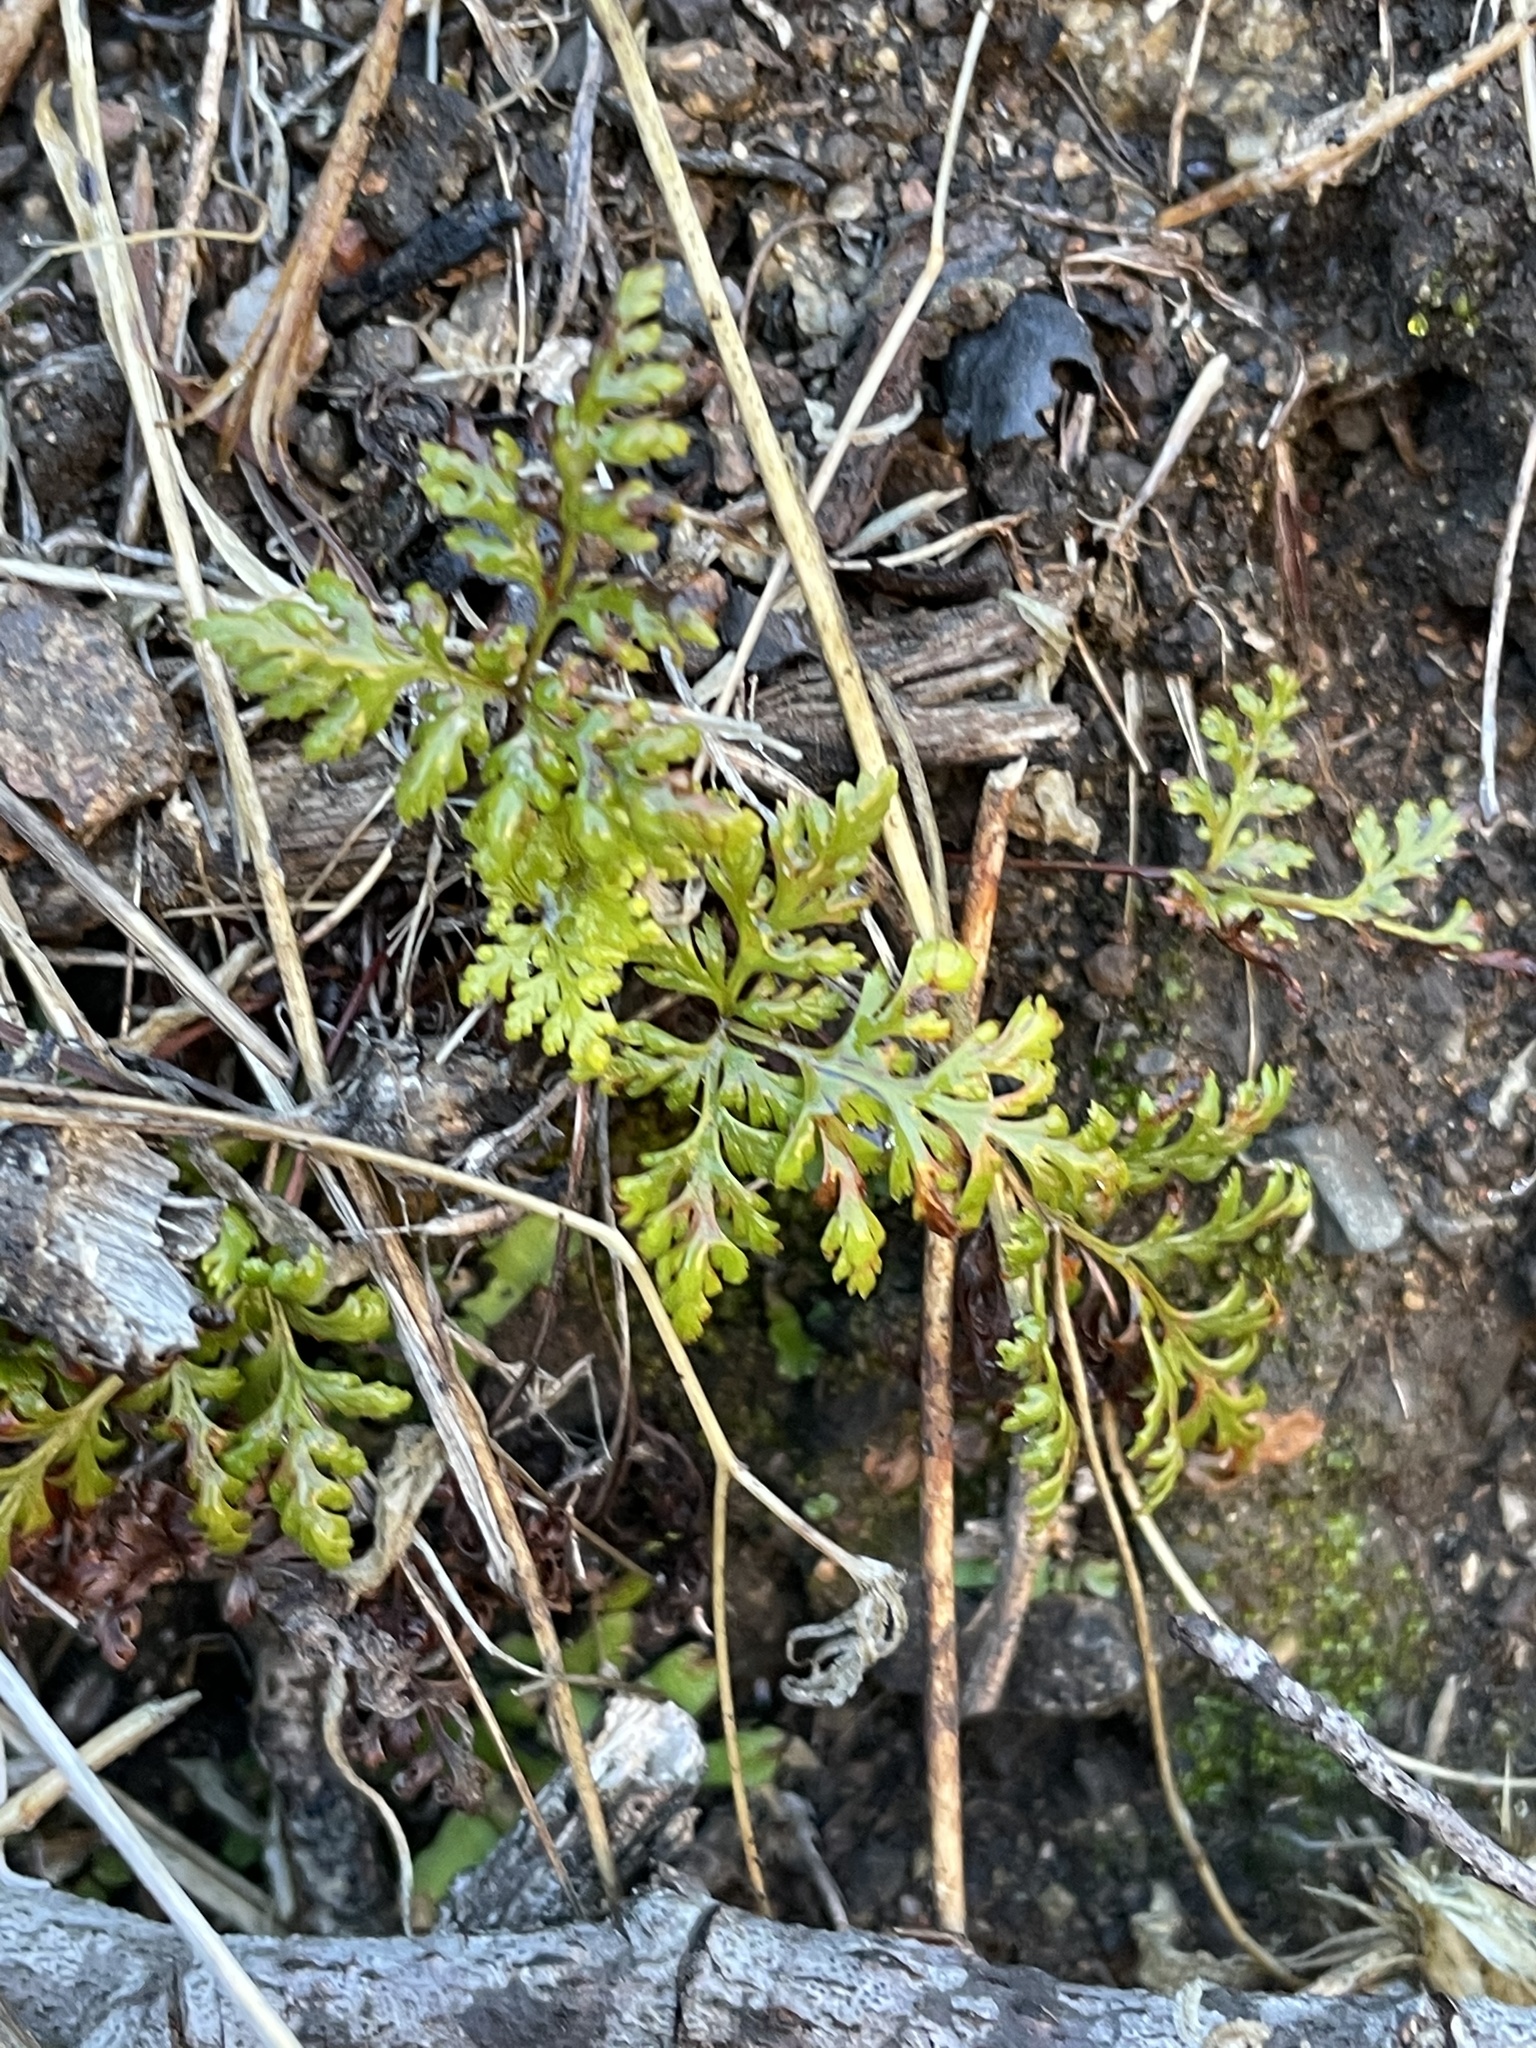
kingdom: Plantae
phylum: Tracheophyta
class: Polypodiopsida
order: Polypodiales
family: Pteridaceae
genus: Aspidotis
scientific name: Aspidotis californica
